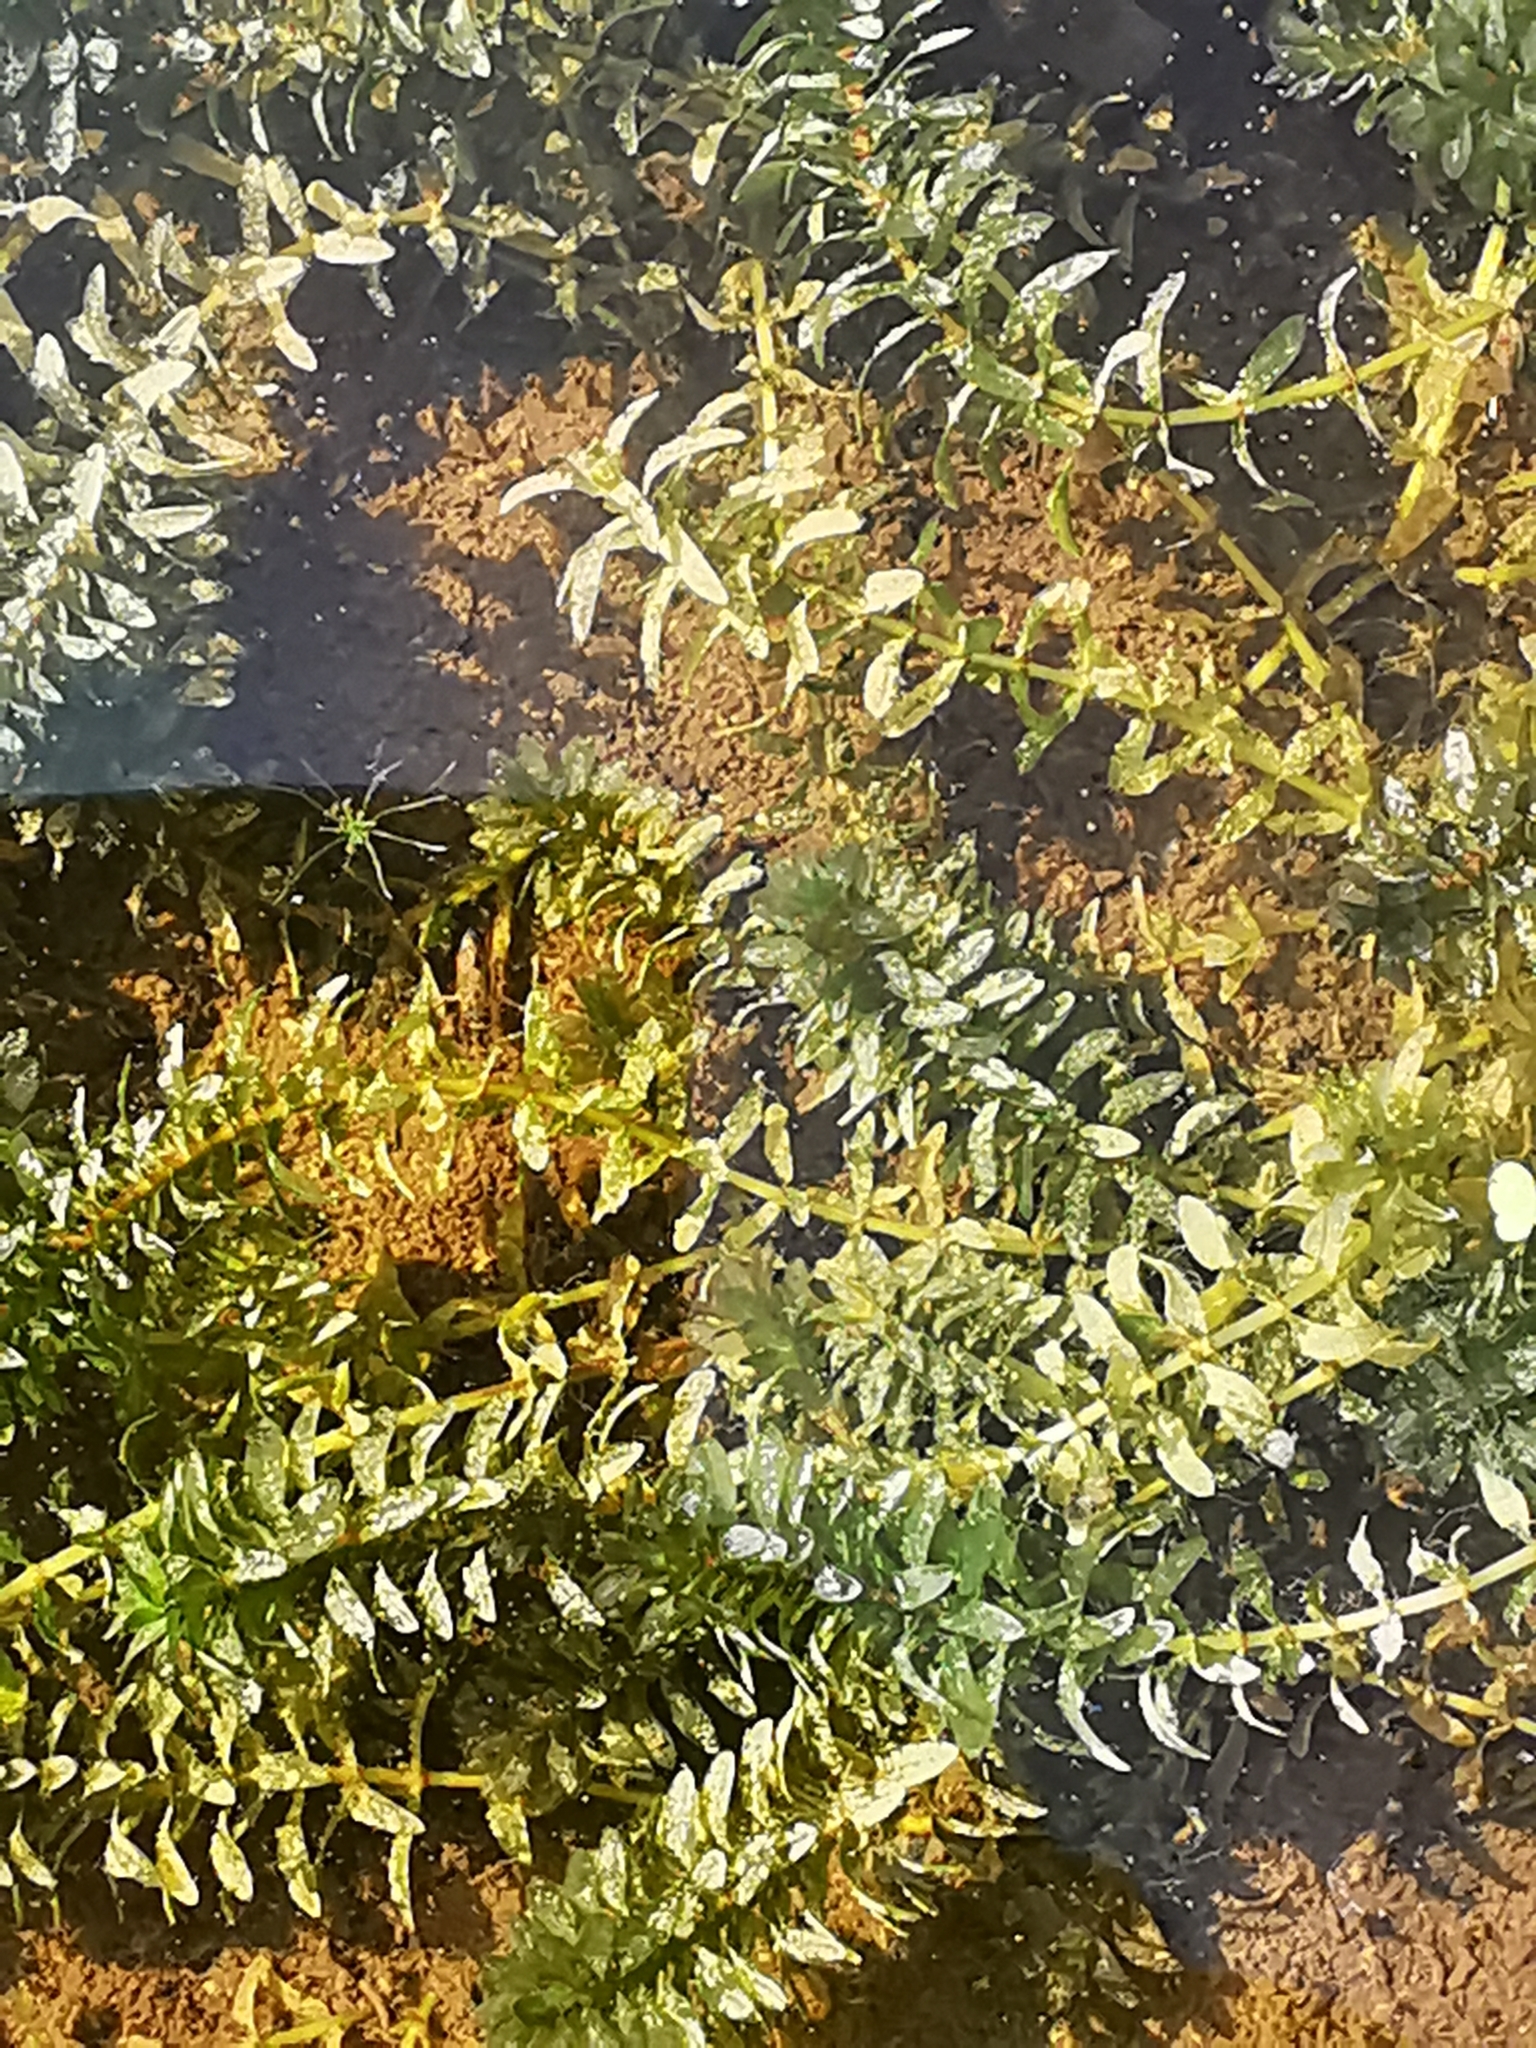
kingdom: Plantae
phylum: Tracheophyta
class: Liliopsida
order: Alismatales
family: Hydrocharitaceae
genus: Elodea
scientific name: Elodea canadensis
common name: Canadian waterweed
